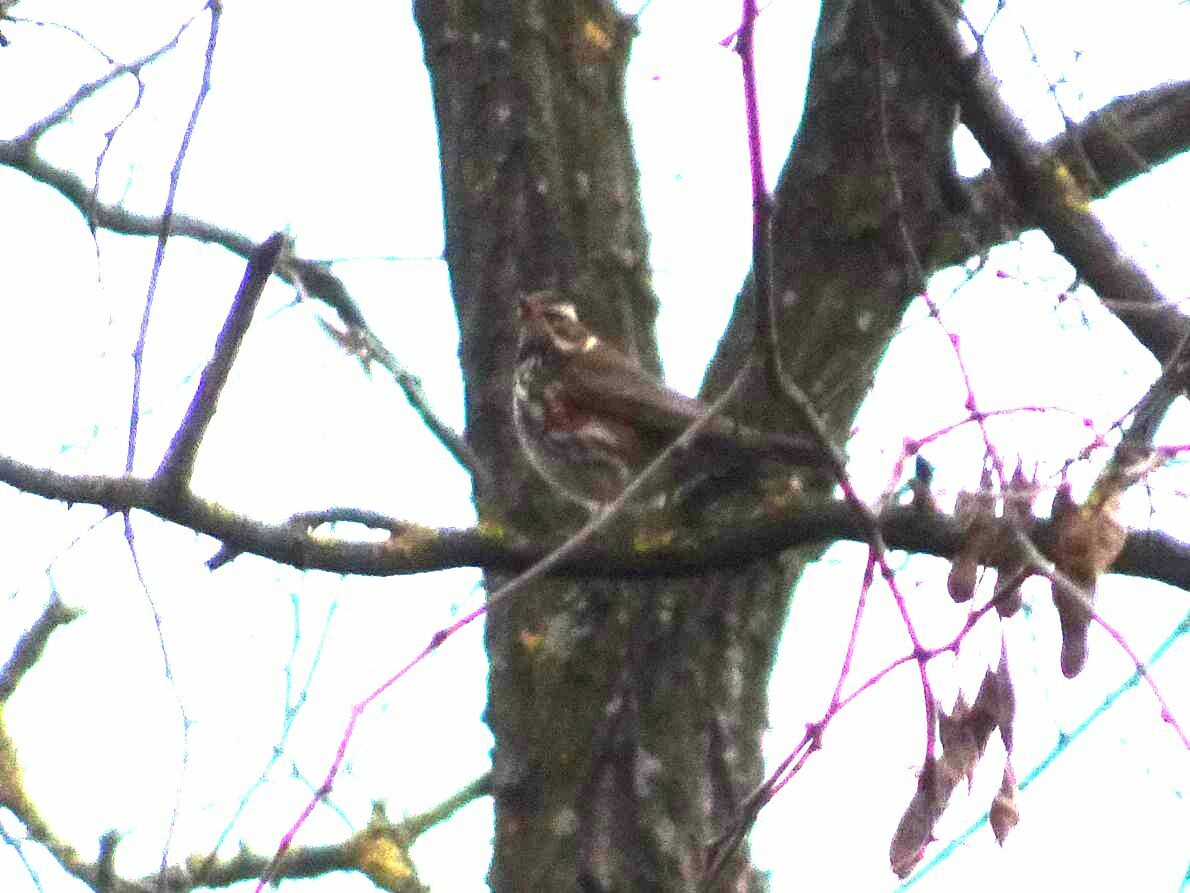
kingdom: Animalia
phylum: Chordata
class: Aves
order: Passeriformes
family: Turdidae
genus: Turdus
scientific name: Turdus iliacus
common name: Redwing
